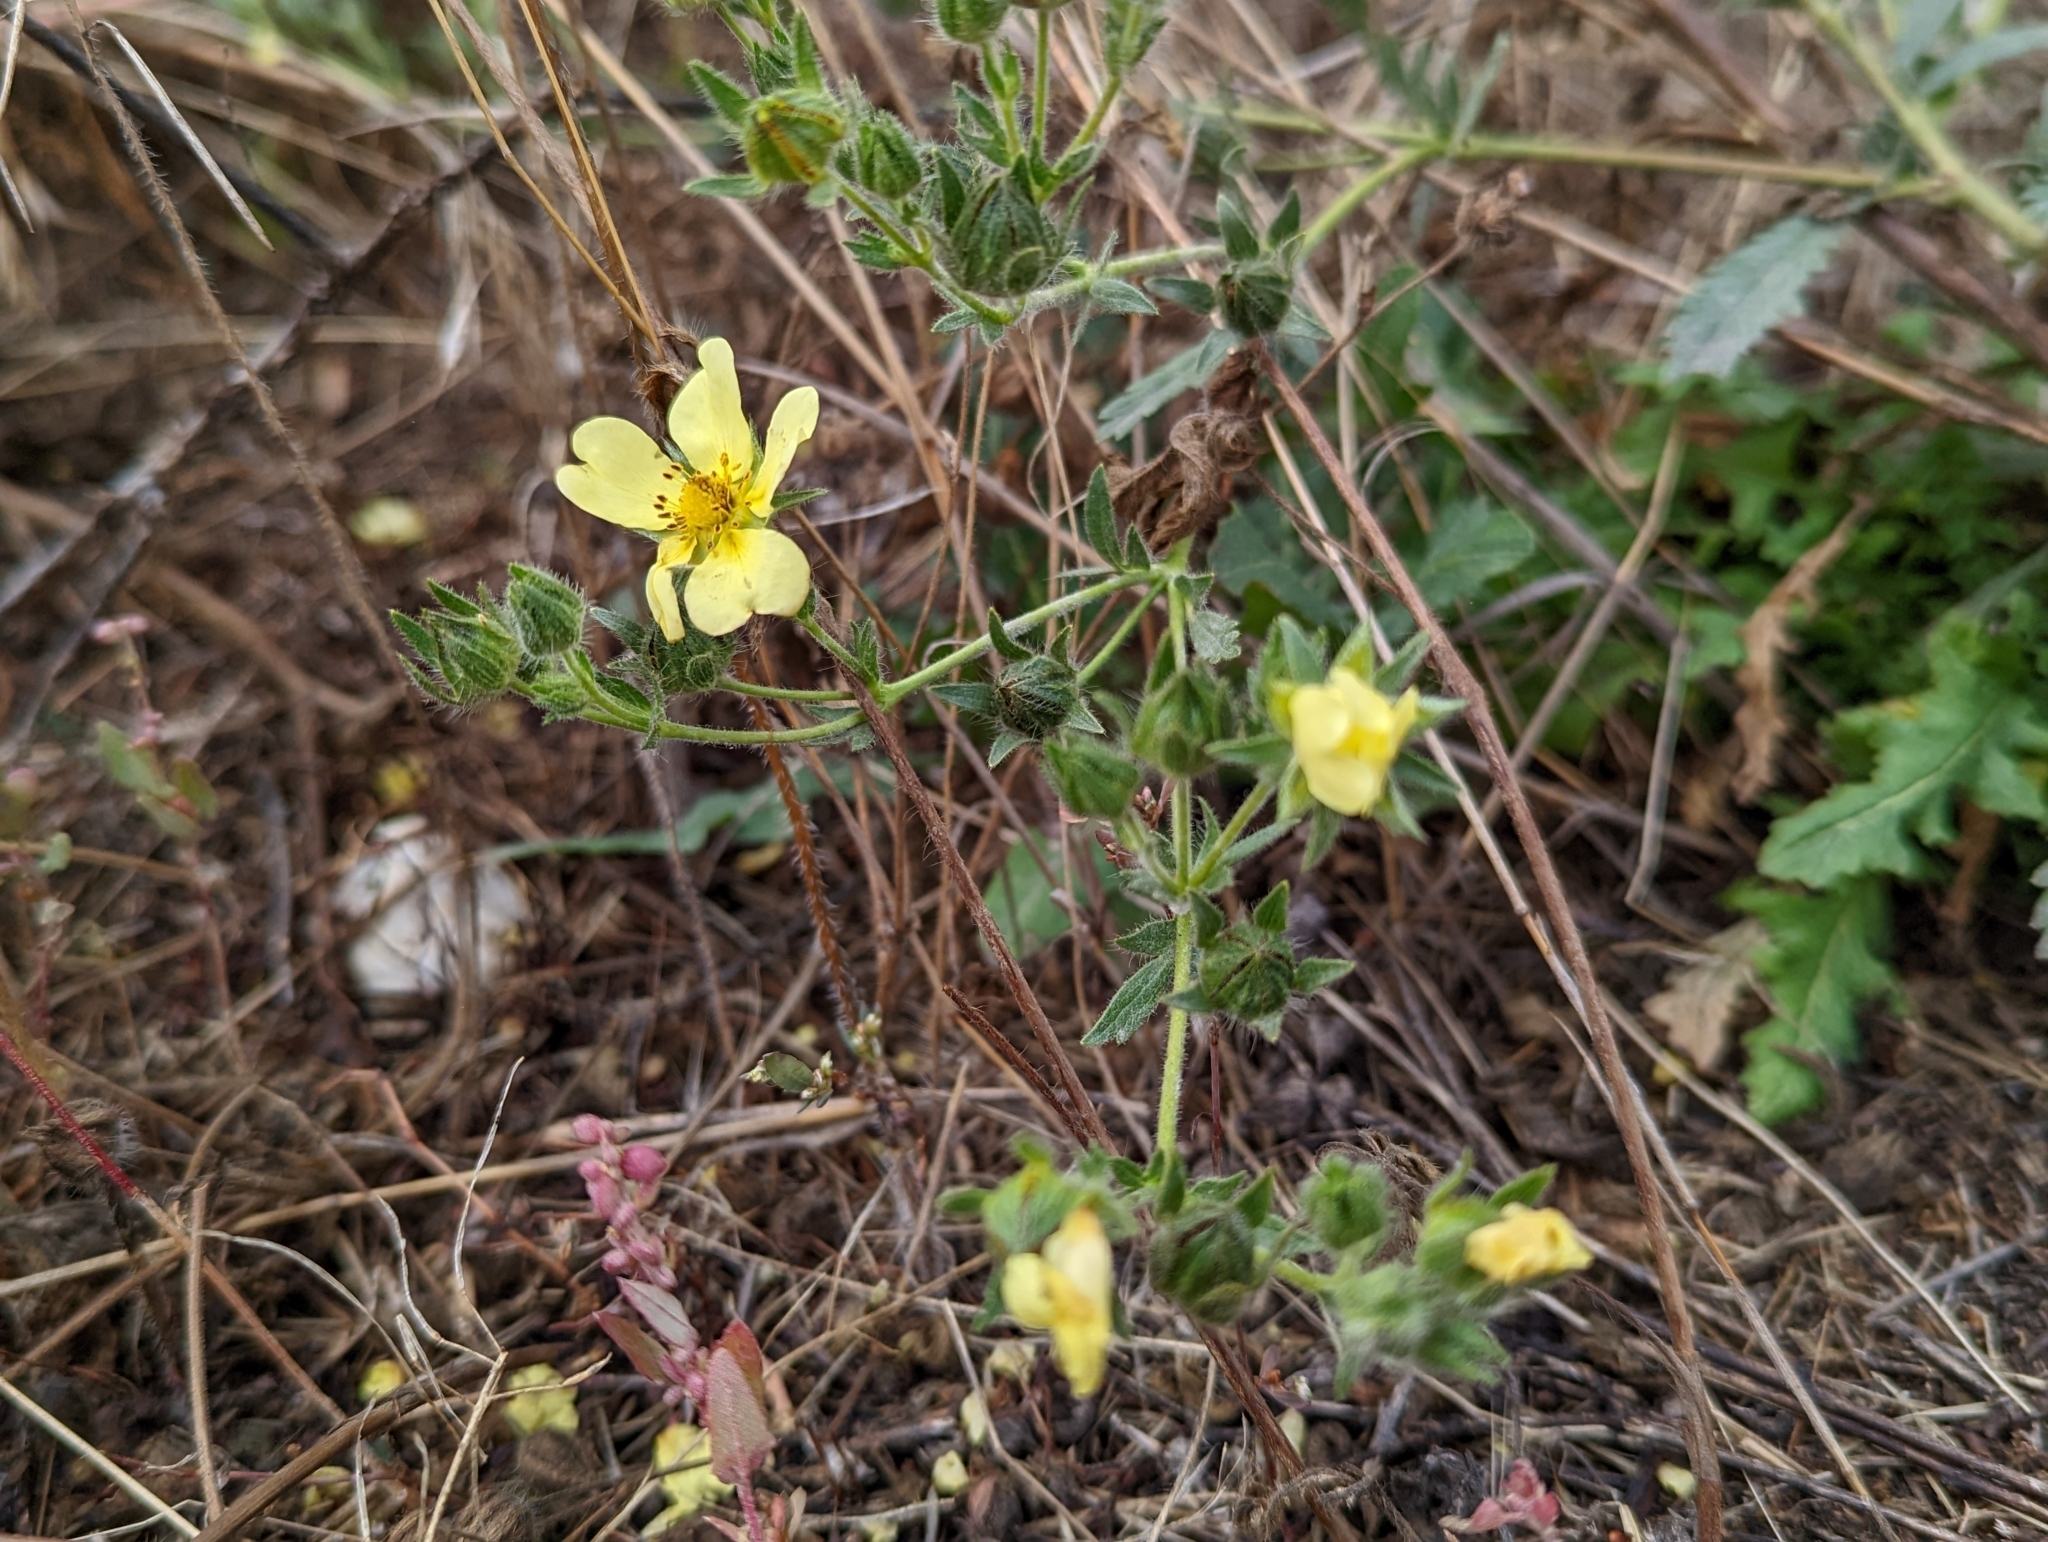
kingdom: Plantae
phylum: Tracheophyta
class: Magnoliopsida
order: Rosales
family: Rosaceae
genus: Potentilla
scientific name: Potentilla recta
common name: Sulphur cinquefoil
